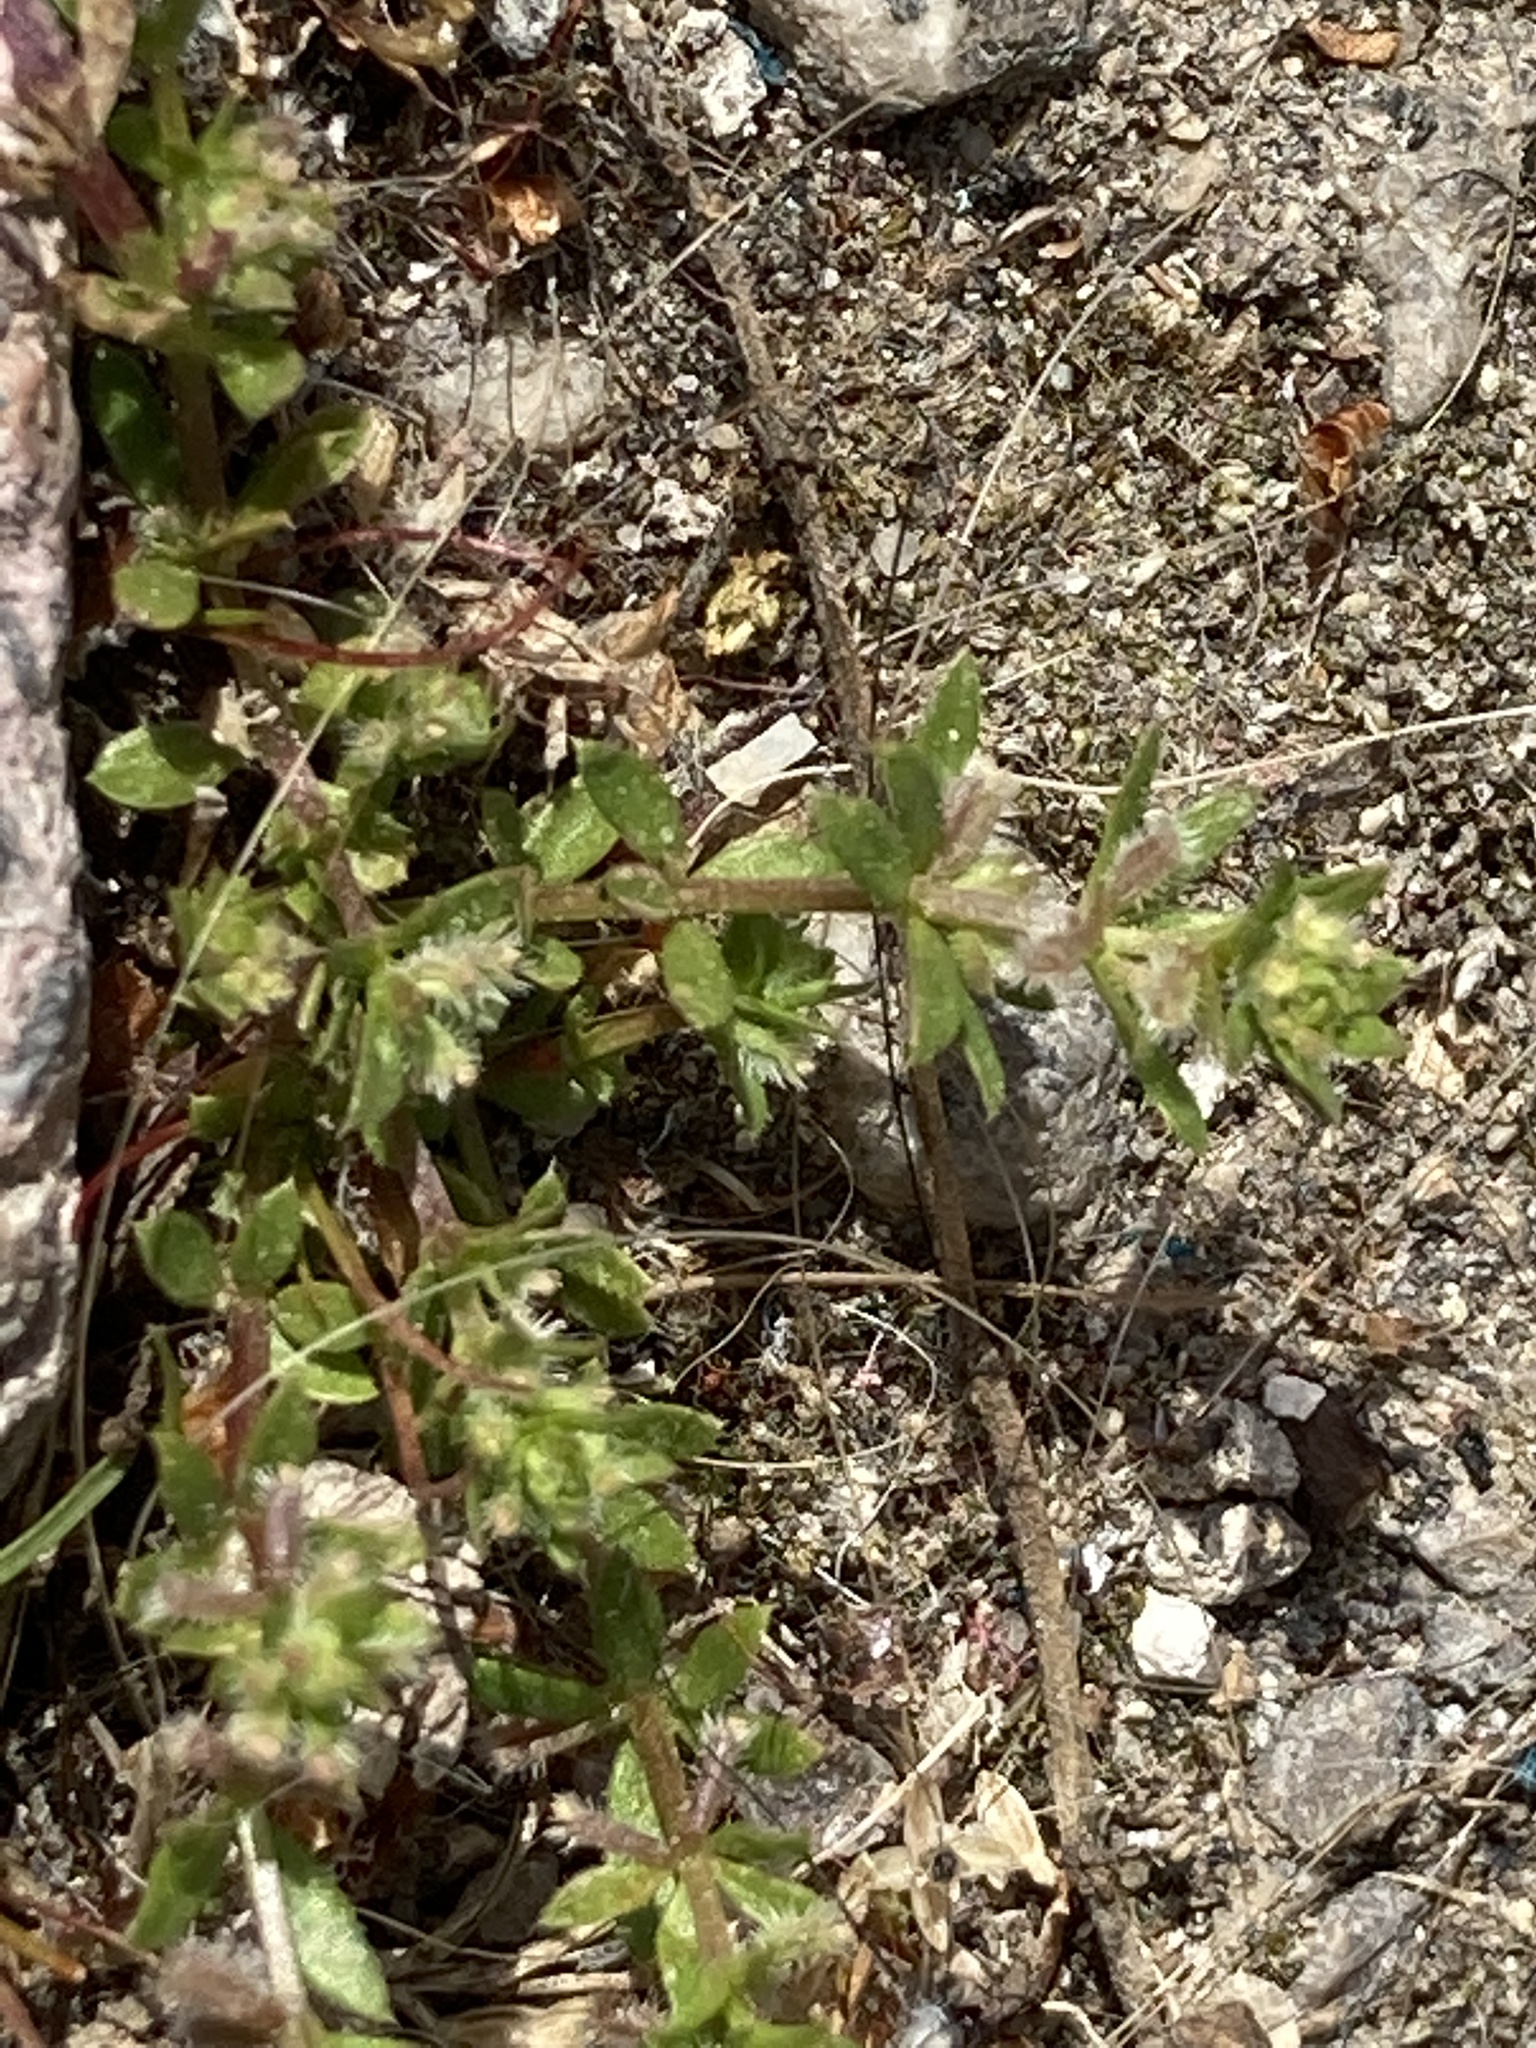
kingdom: Plantae
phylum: Tracheophyta
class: Magnoliopsida
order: Gentianales
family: Rubiaceae
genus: Galium
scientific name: Galium murale
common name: Yellow wall bedstraw
